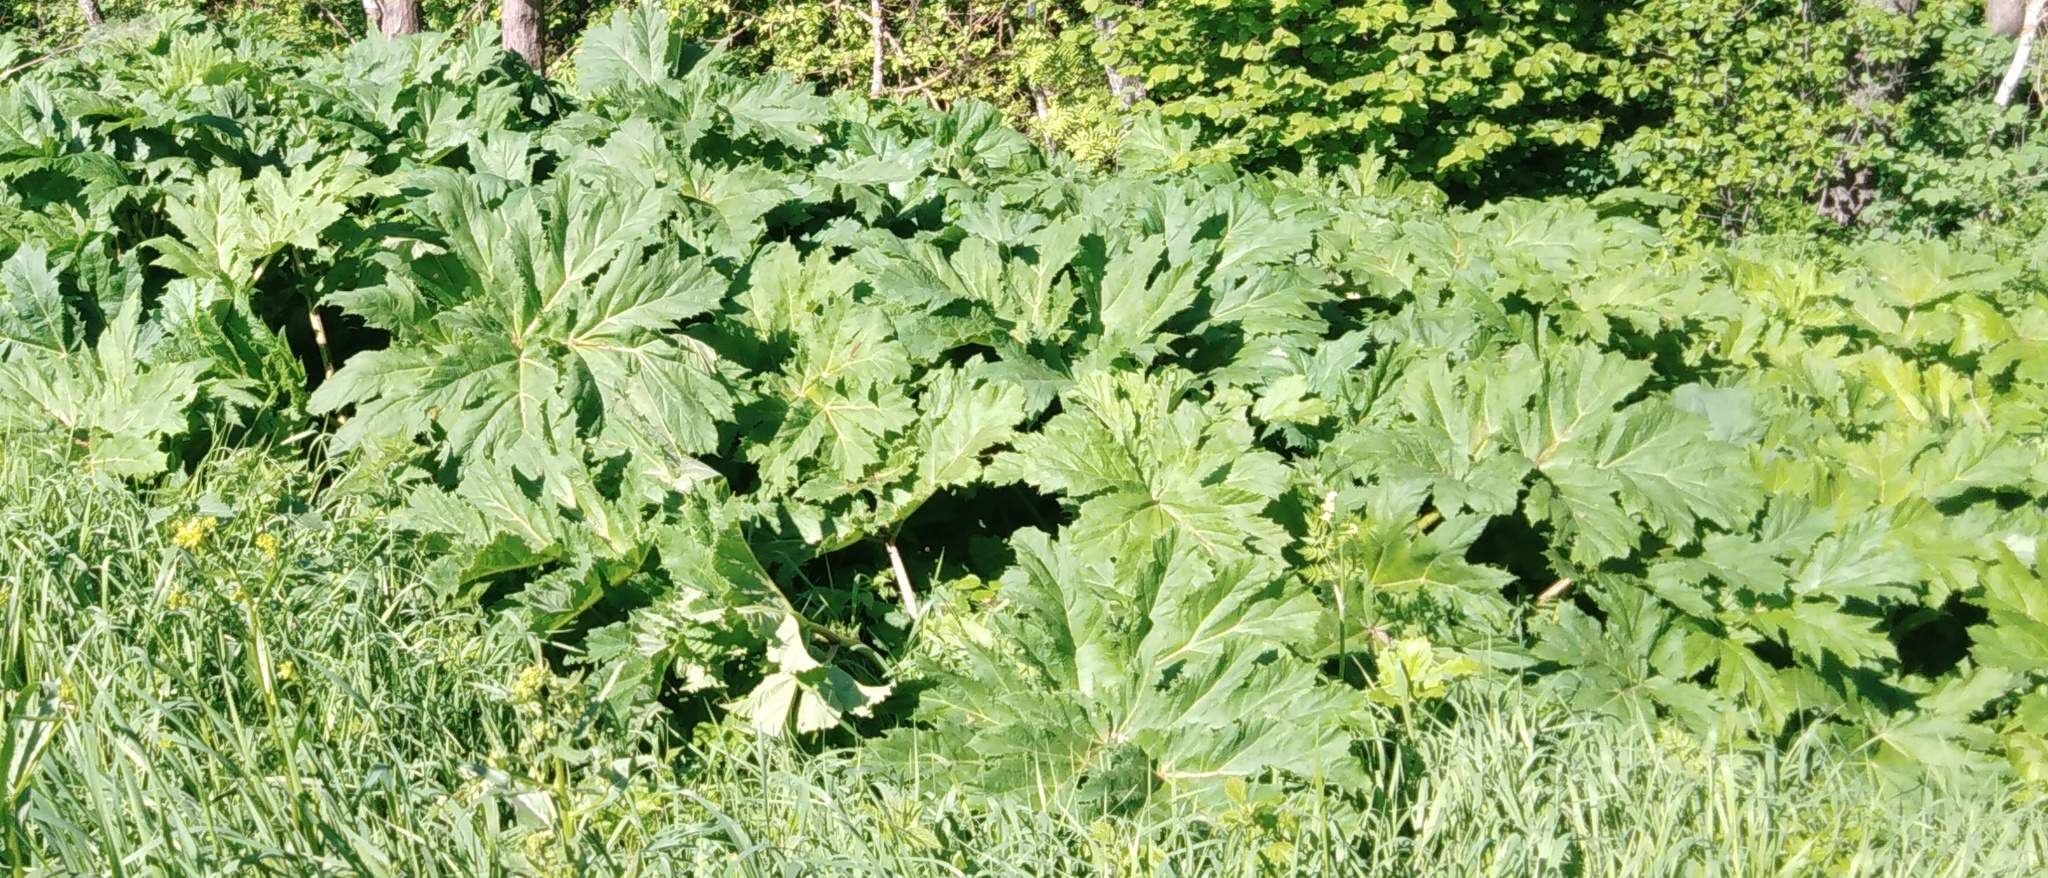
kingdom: Plantae
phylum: Tracheophyta
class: Magnoliopsida
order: Apiales
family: Apiaceae
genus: Heracleum
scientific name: Heracleum sosnowskyi
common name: Sosnowsky's hogweed
